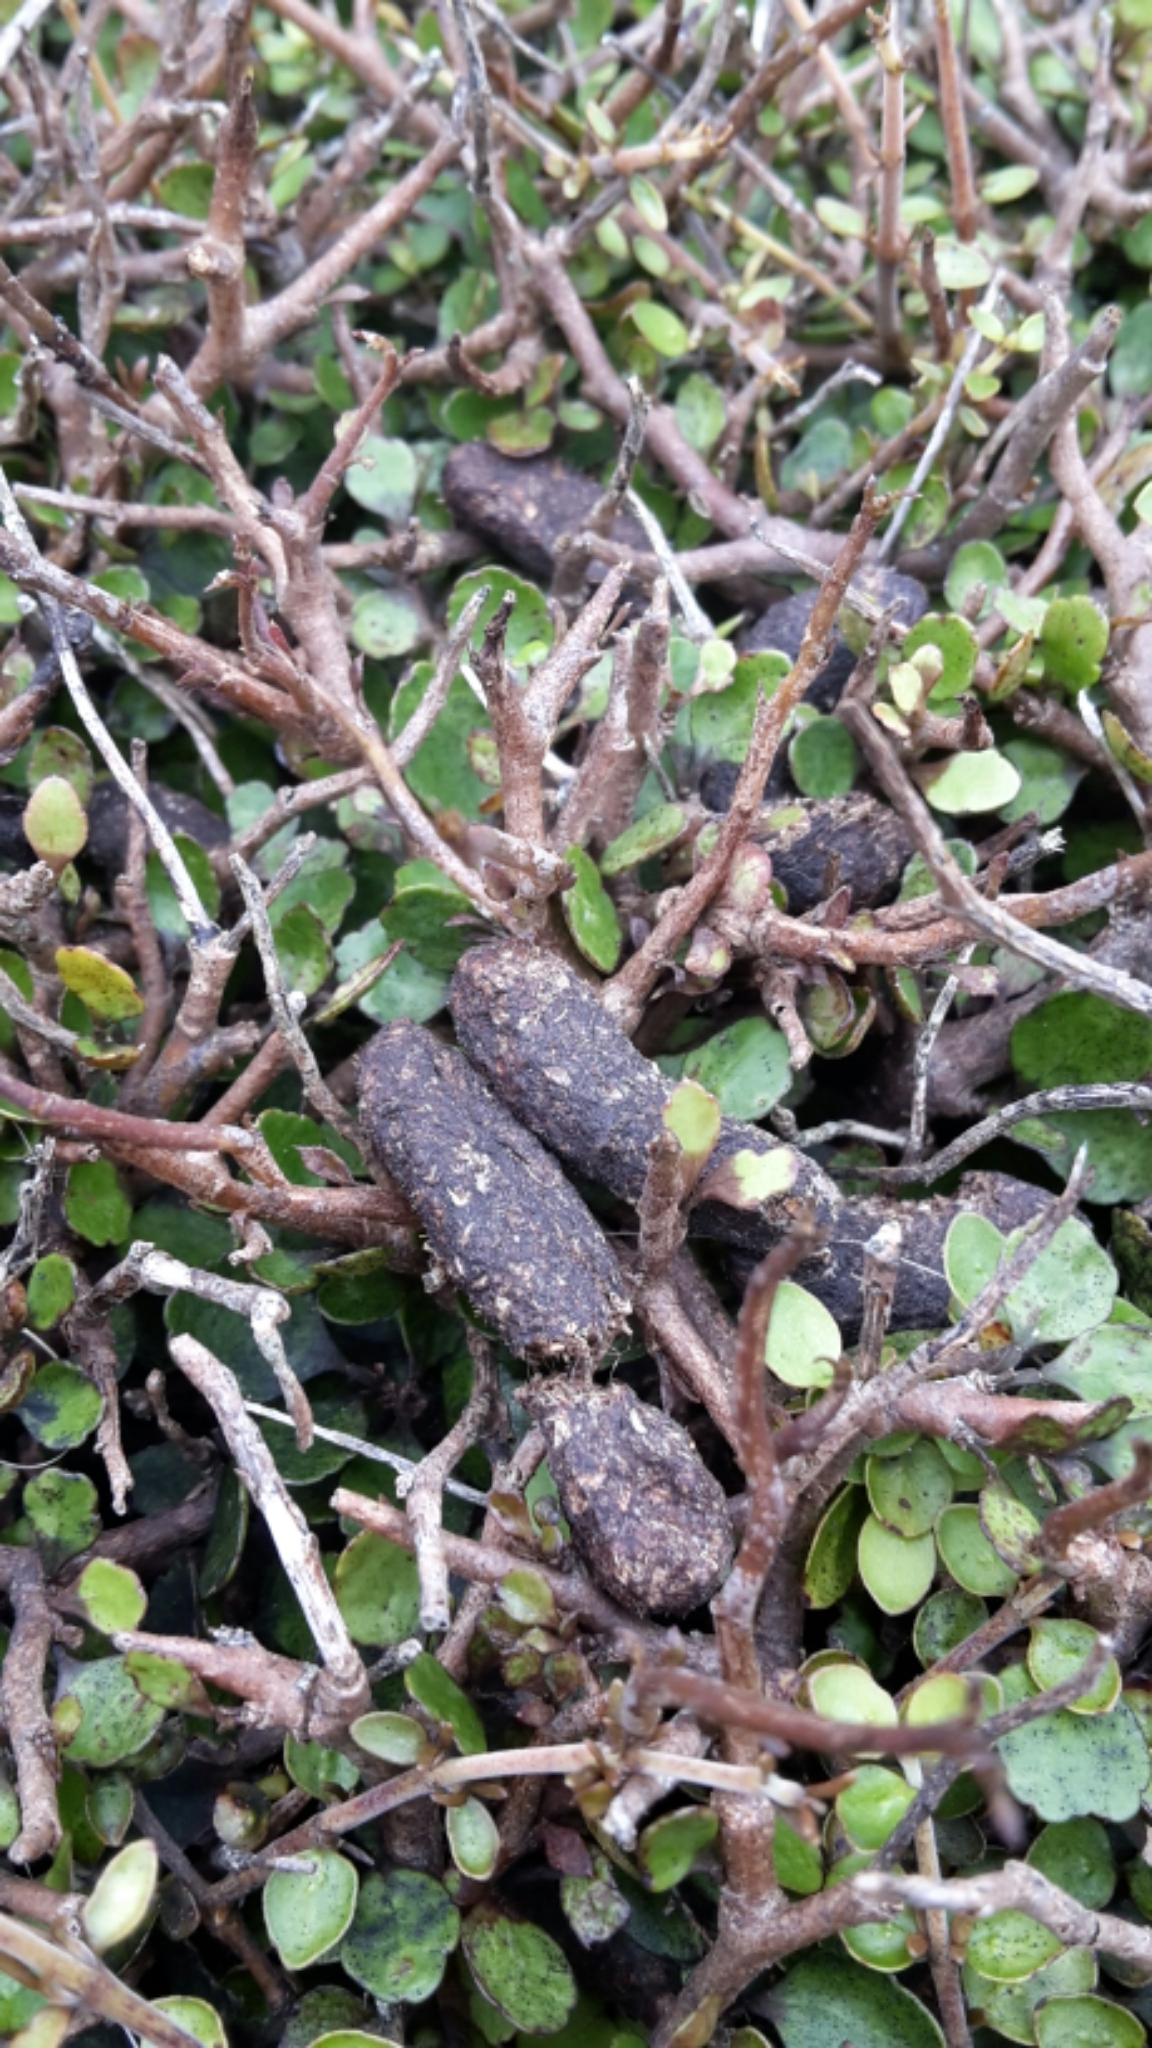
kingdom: Animalia
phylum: Chordata
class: Mammalia
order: Diprotodontia
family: Phalangeridae
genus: Trichosurus
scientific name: Trichosurus vulpecula
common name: Common brushtail
